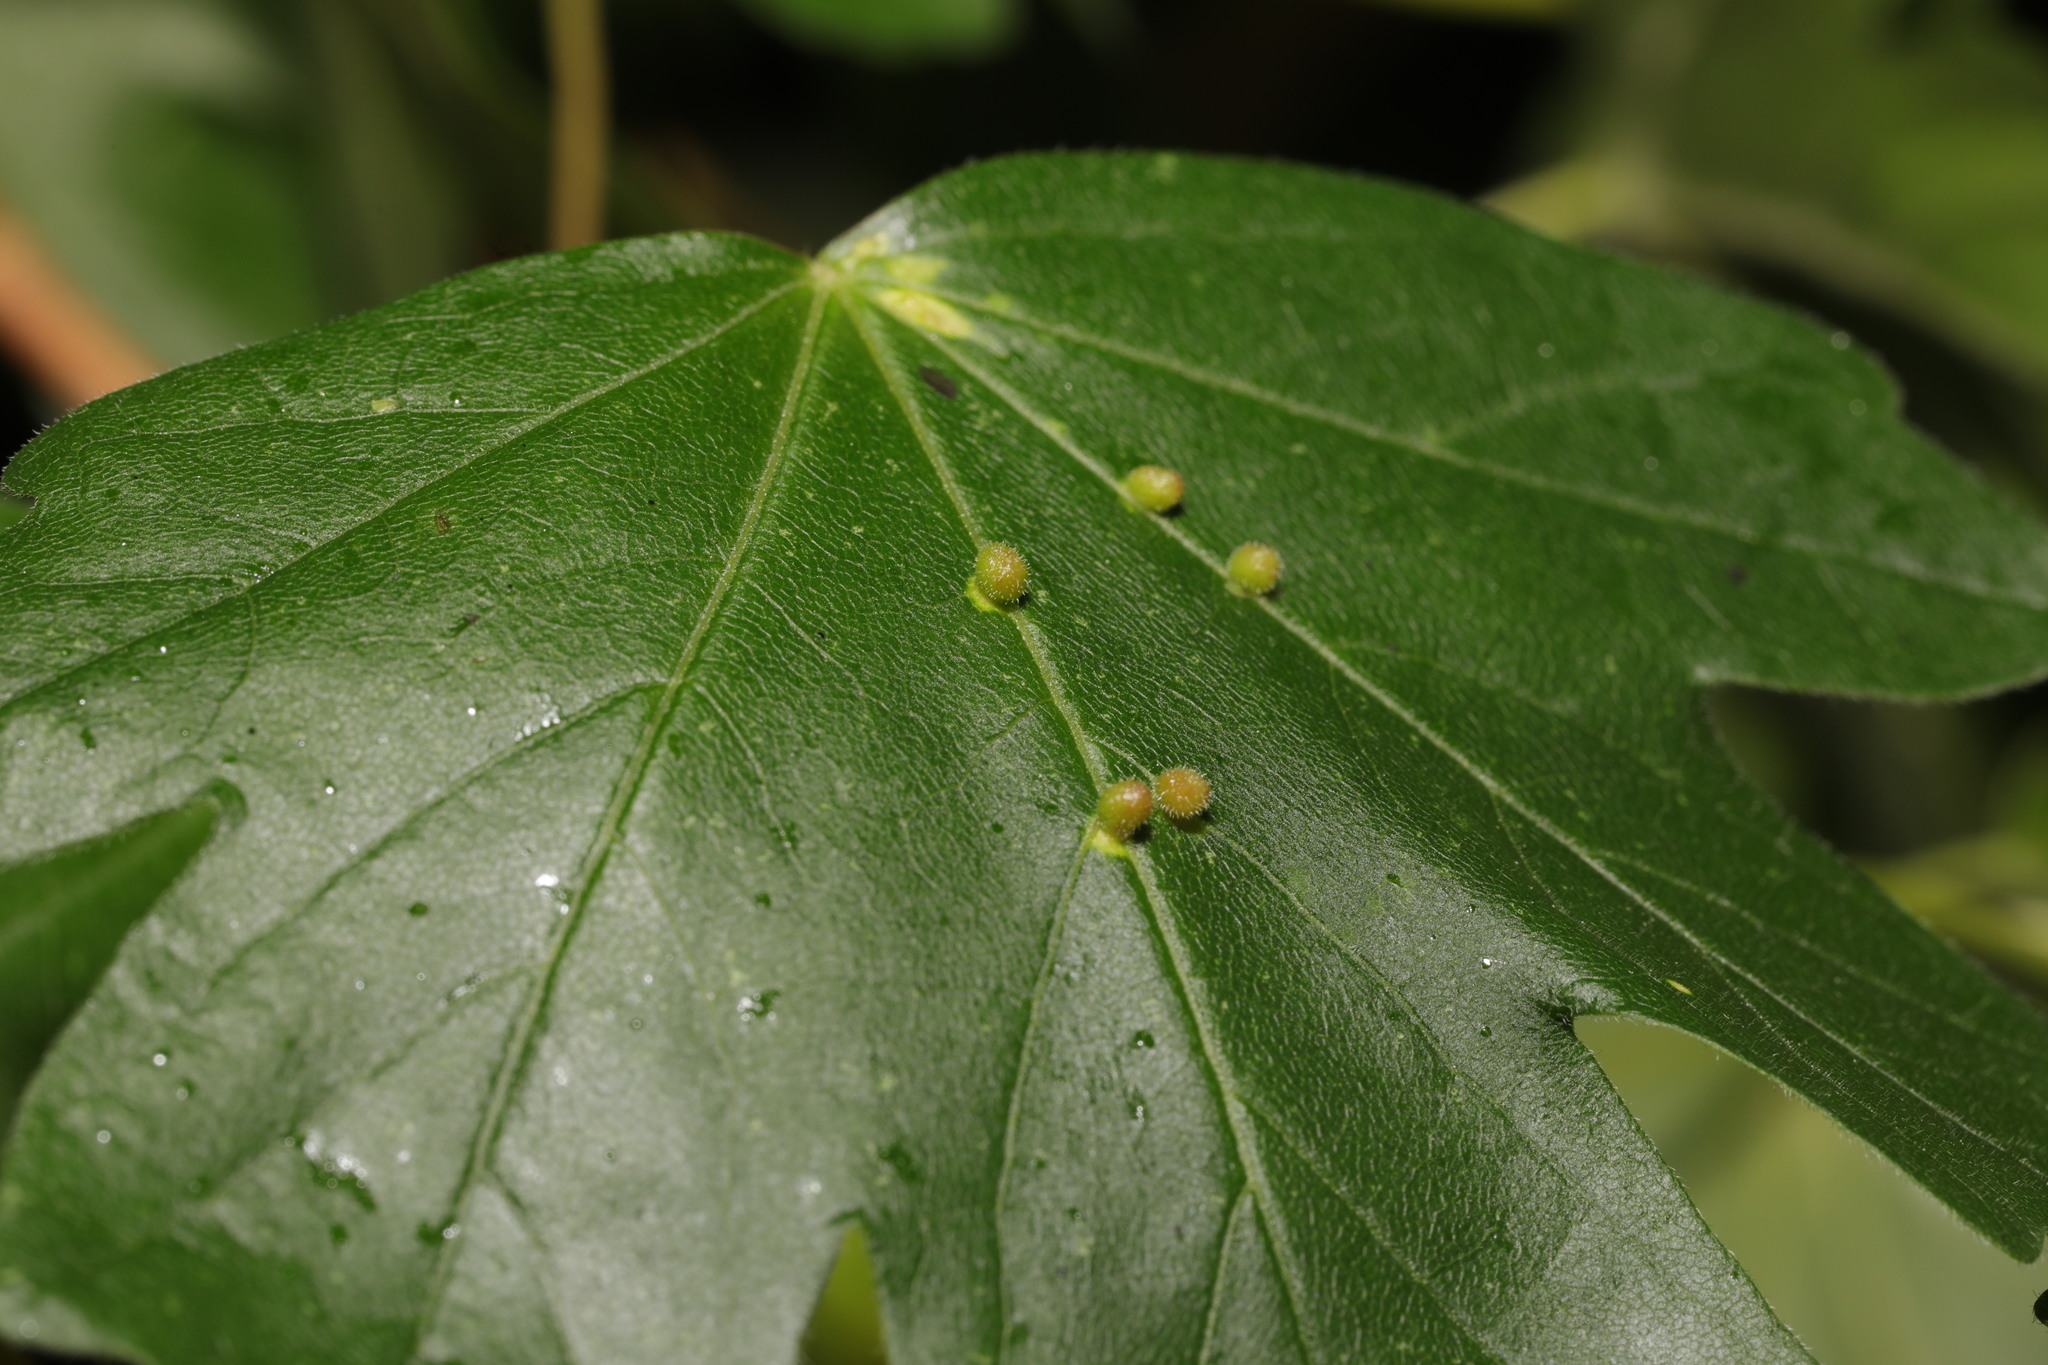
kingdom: Animalia
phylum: Arthropoda
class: Arachnida
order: Trombidiformes
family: Eriophyidae
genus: Aceria
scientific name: Aceria macrochelus
